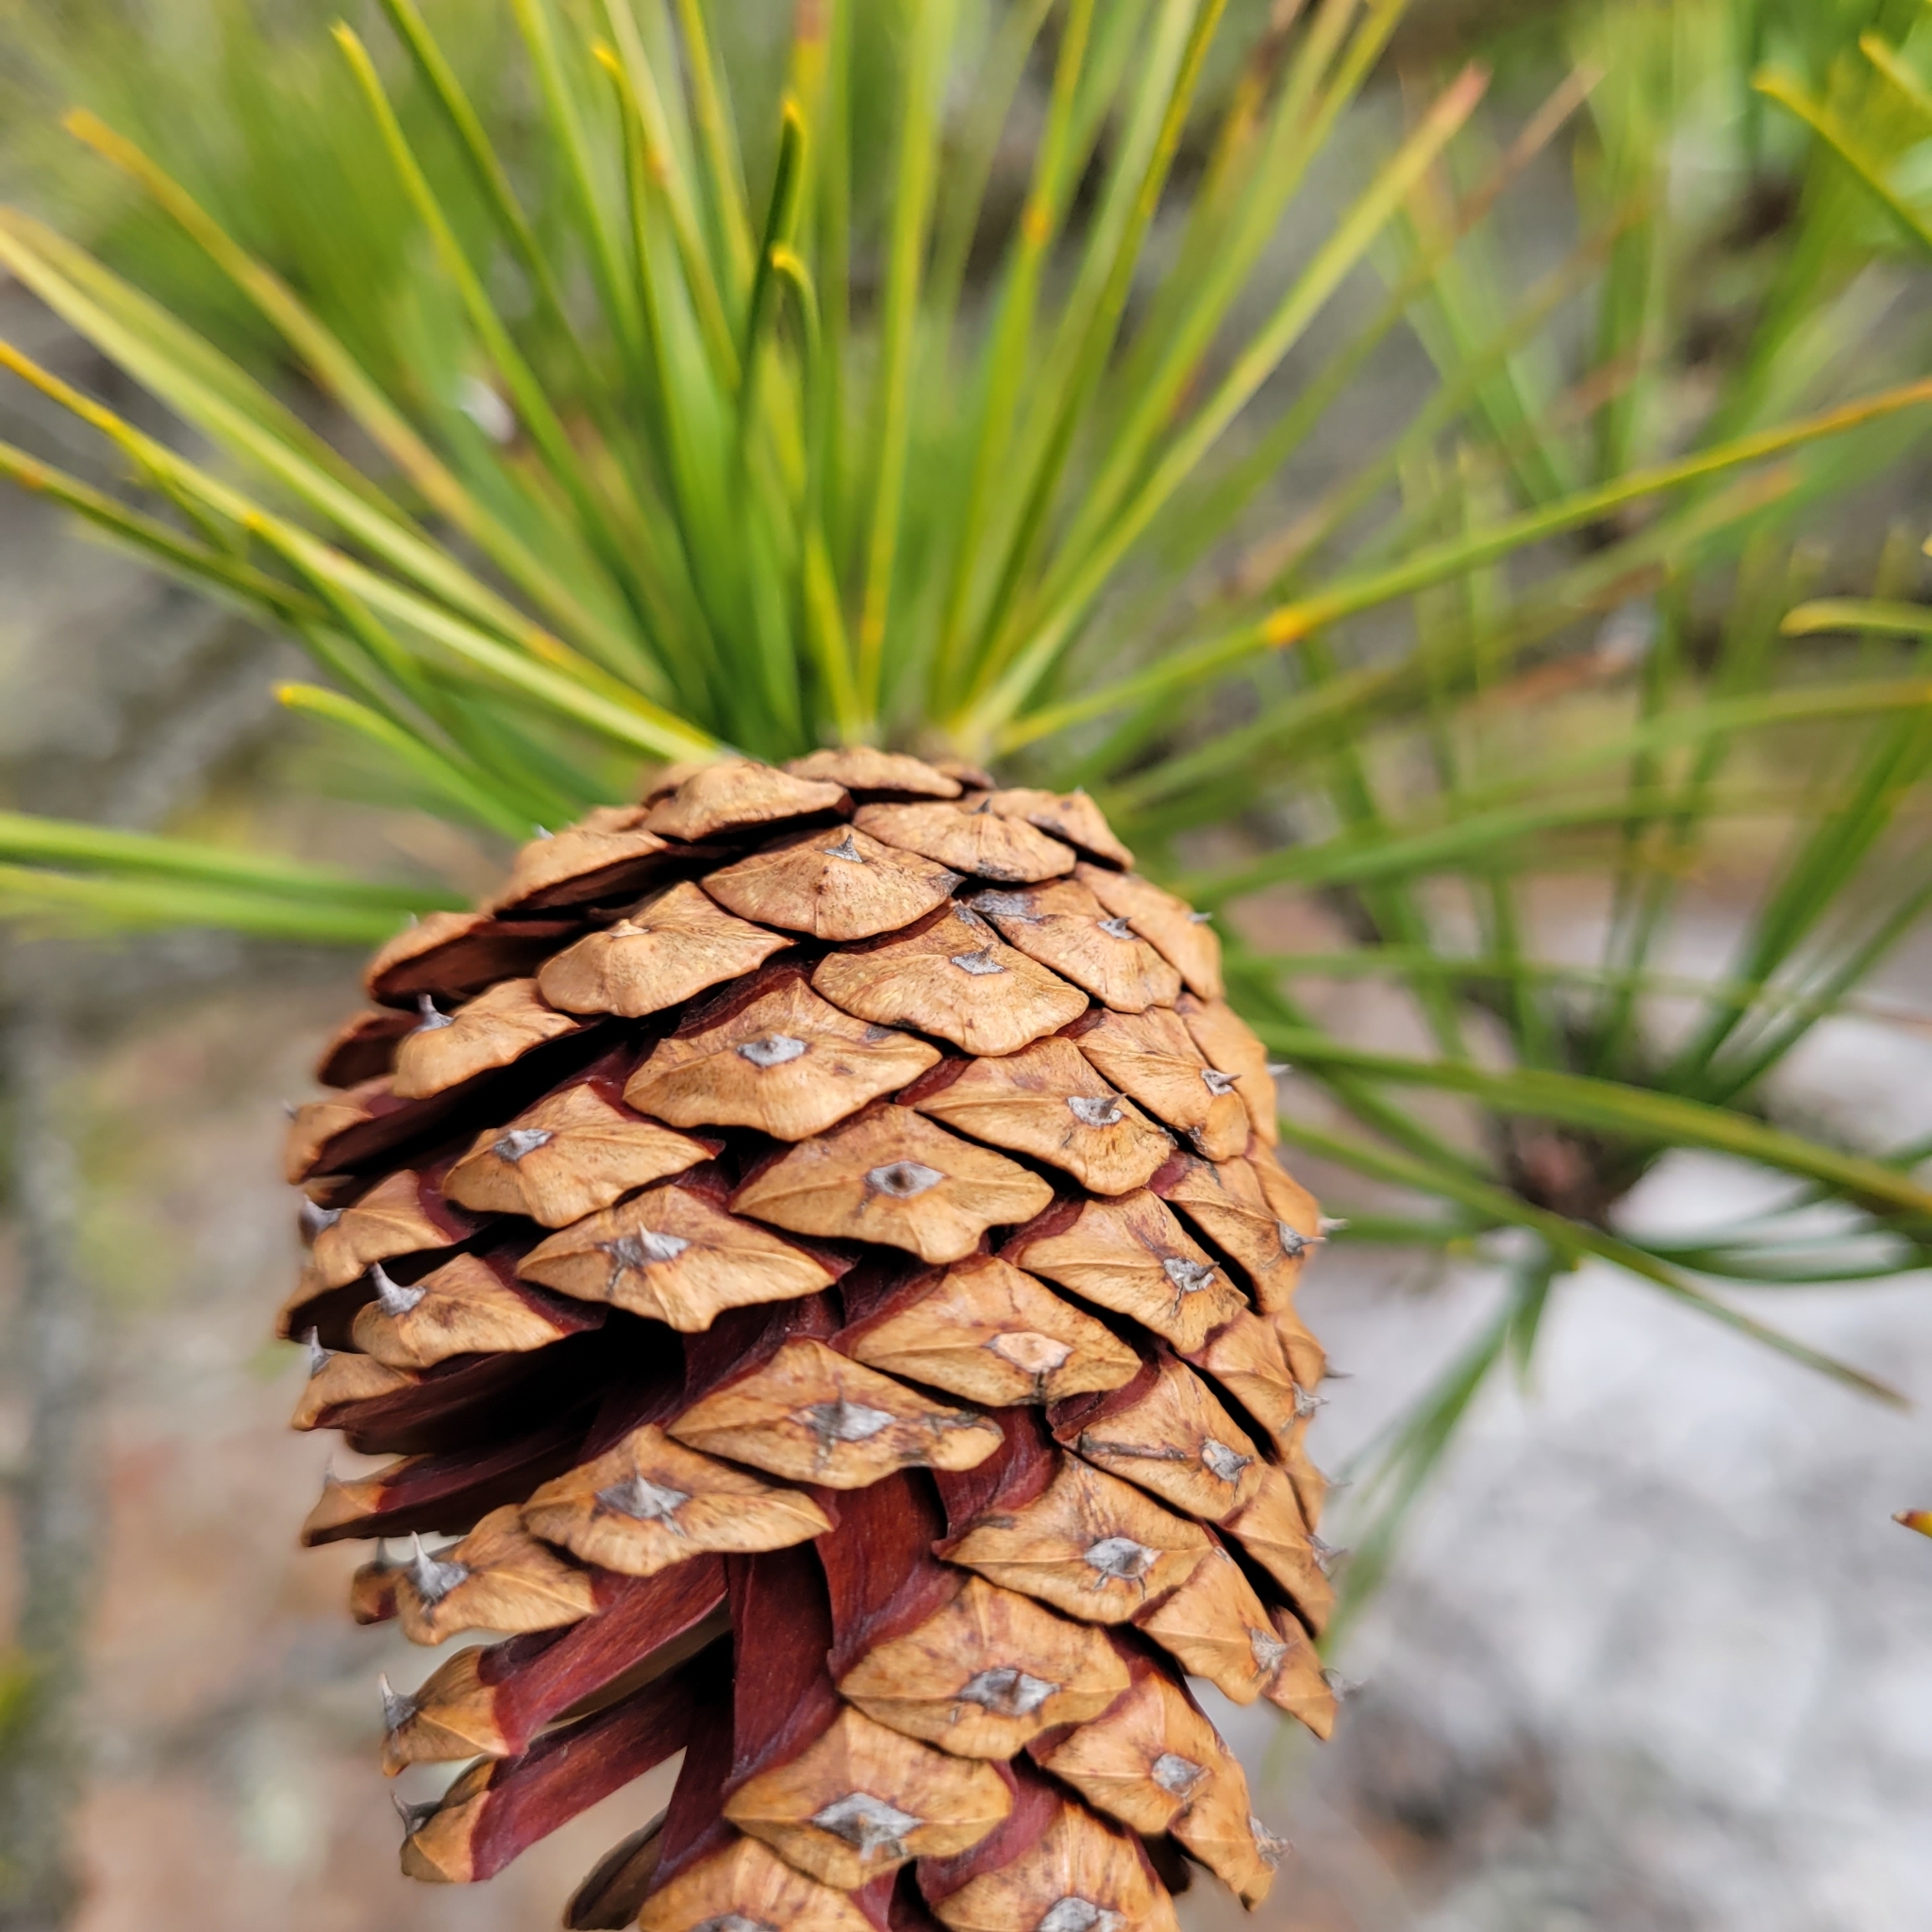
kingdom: Plantae
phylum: Tracheophyta
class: Pinopsida
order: Pinales
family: Pinaceae
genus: Pinus
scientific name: Pinus rigida
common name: Pitch pine
